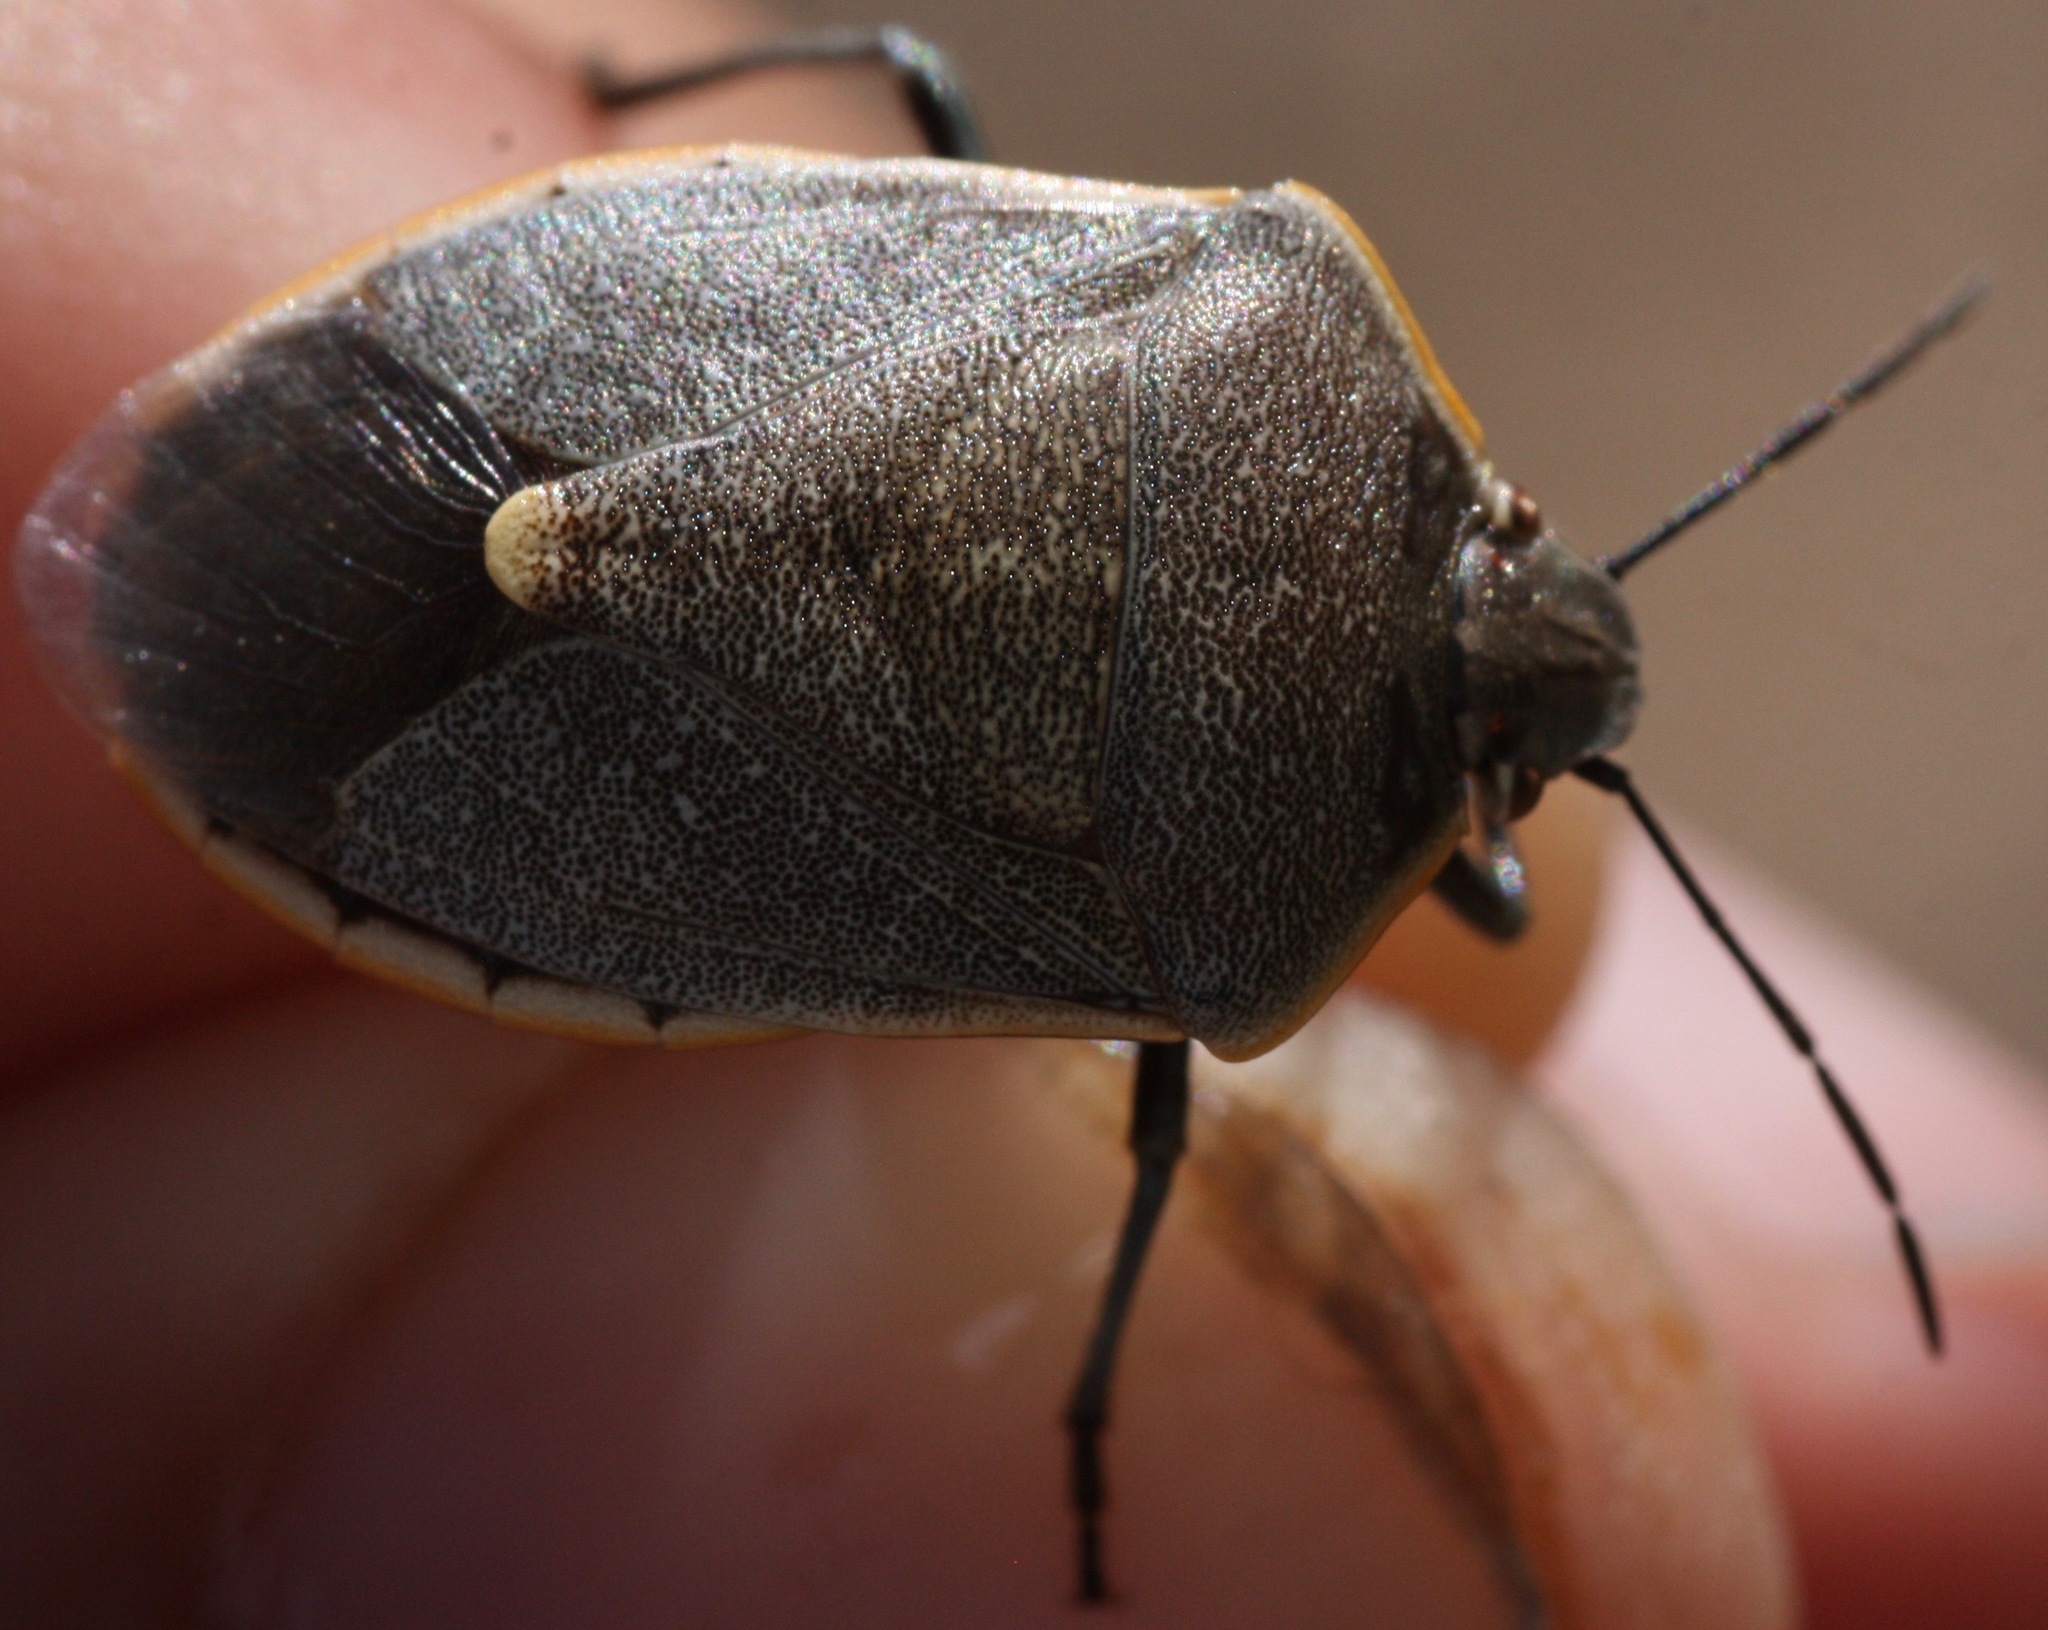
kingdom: Animalia
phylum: Arthropoda
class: Insecta
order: Hemiptera
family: Pentatomidae
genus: Chlorochroa
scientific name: Chlorochroa ligata
